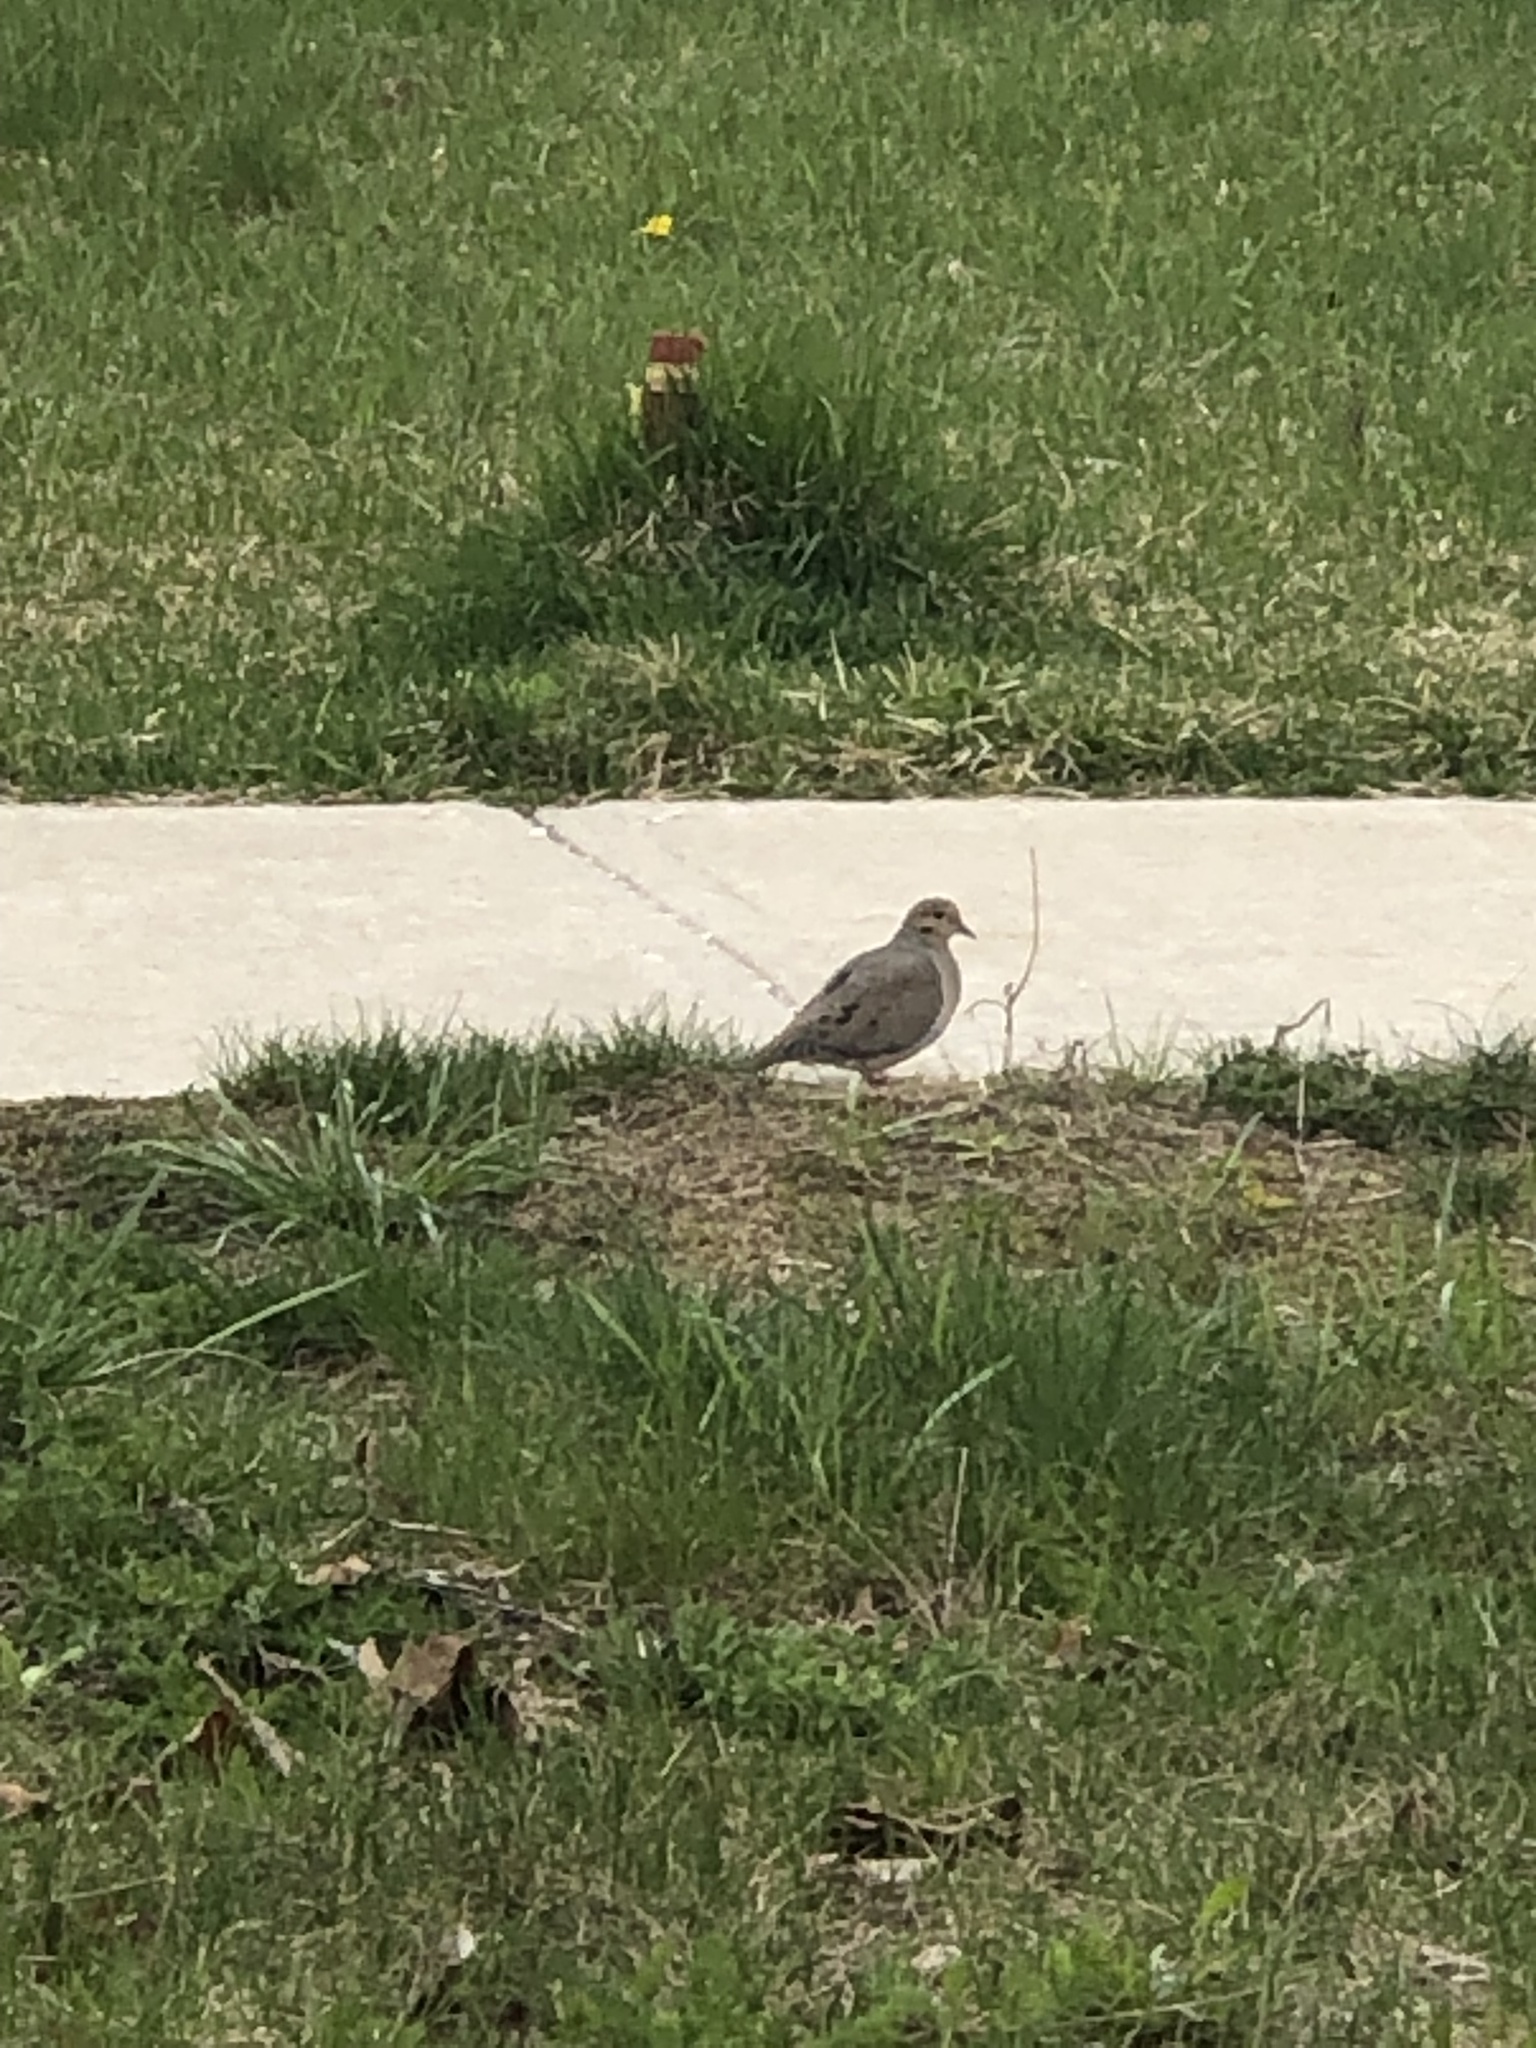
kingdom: Animalia
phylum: Chordata
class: Aves
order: Columbiformes
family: Columbidae
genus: Zenaida
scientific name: Zenaida macroura
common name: Mourning dove
